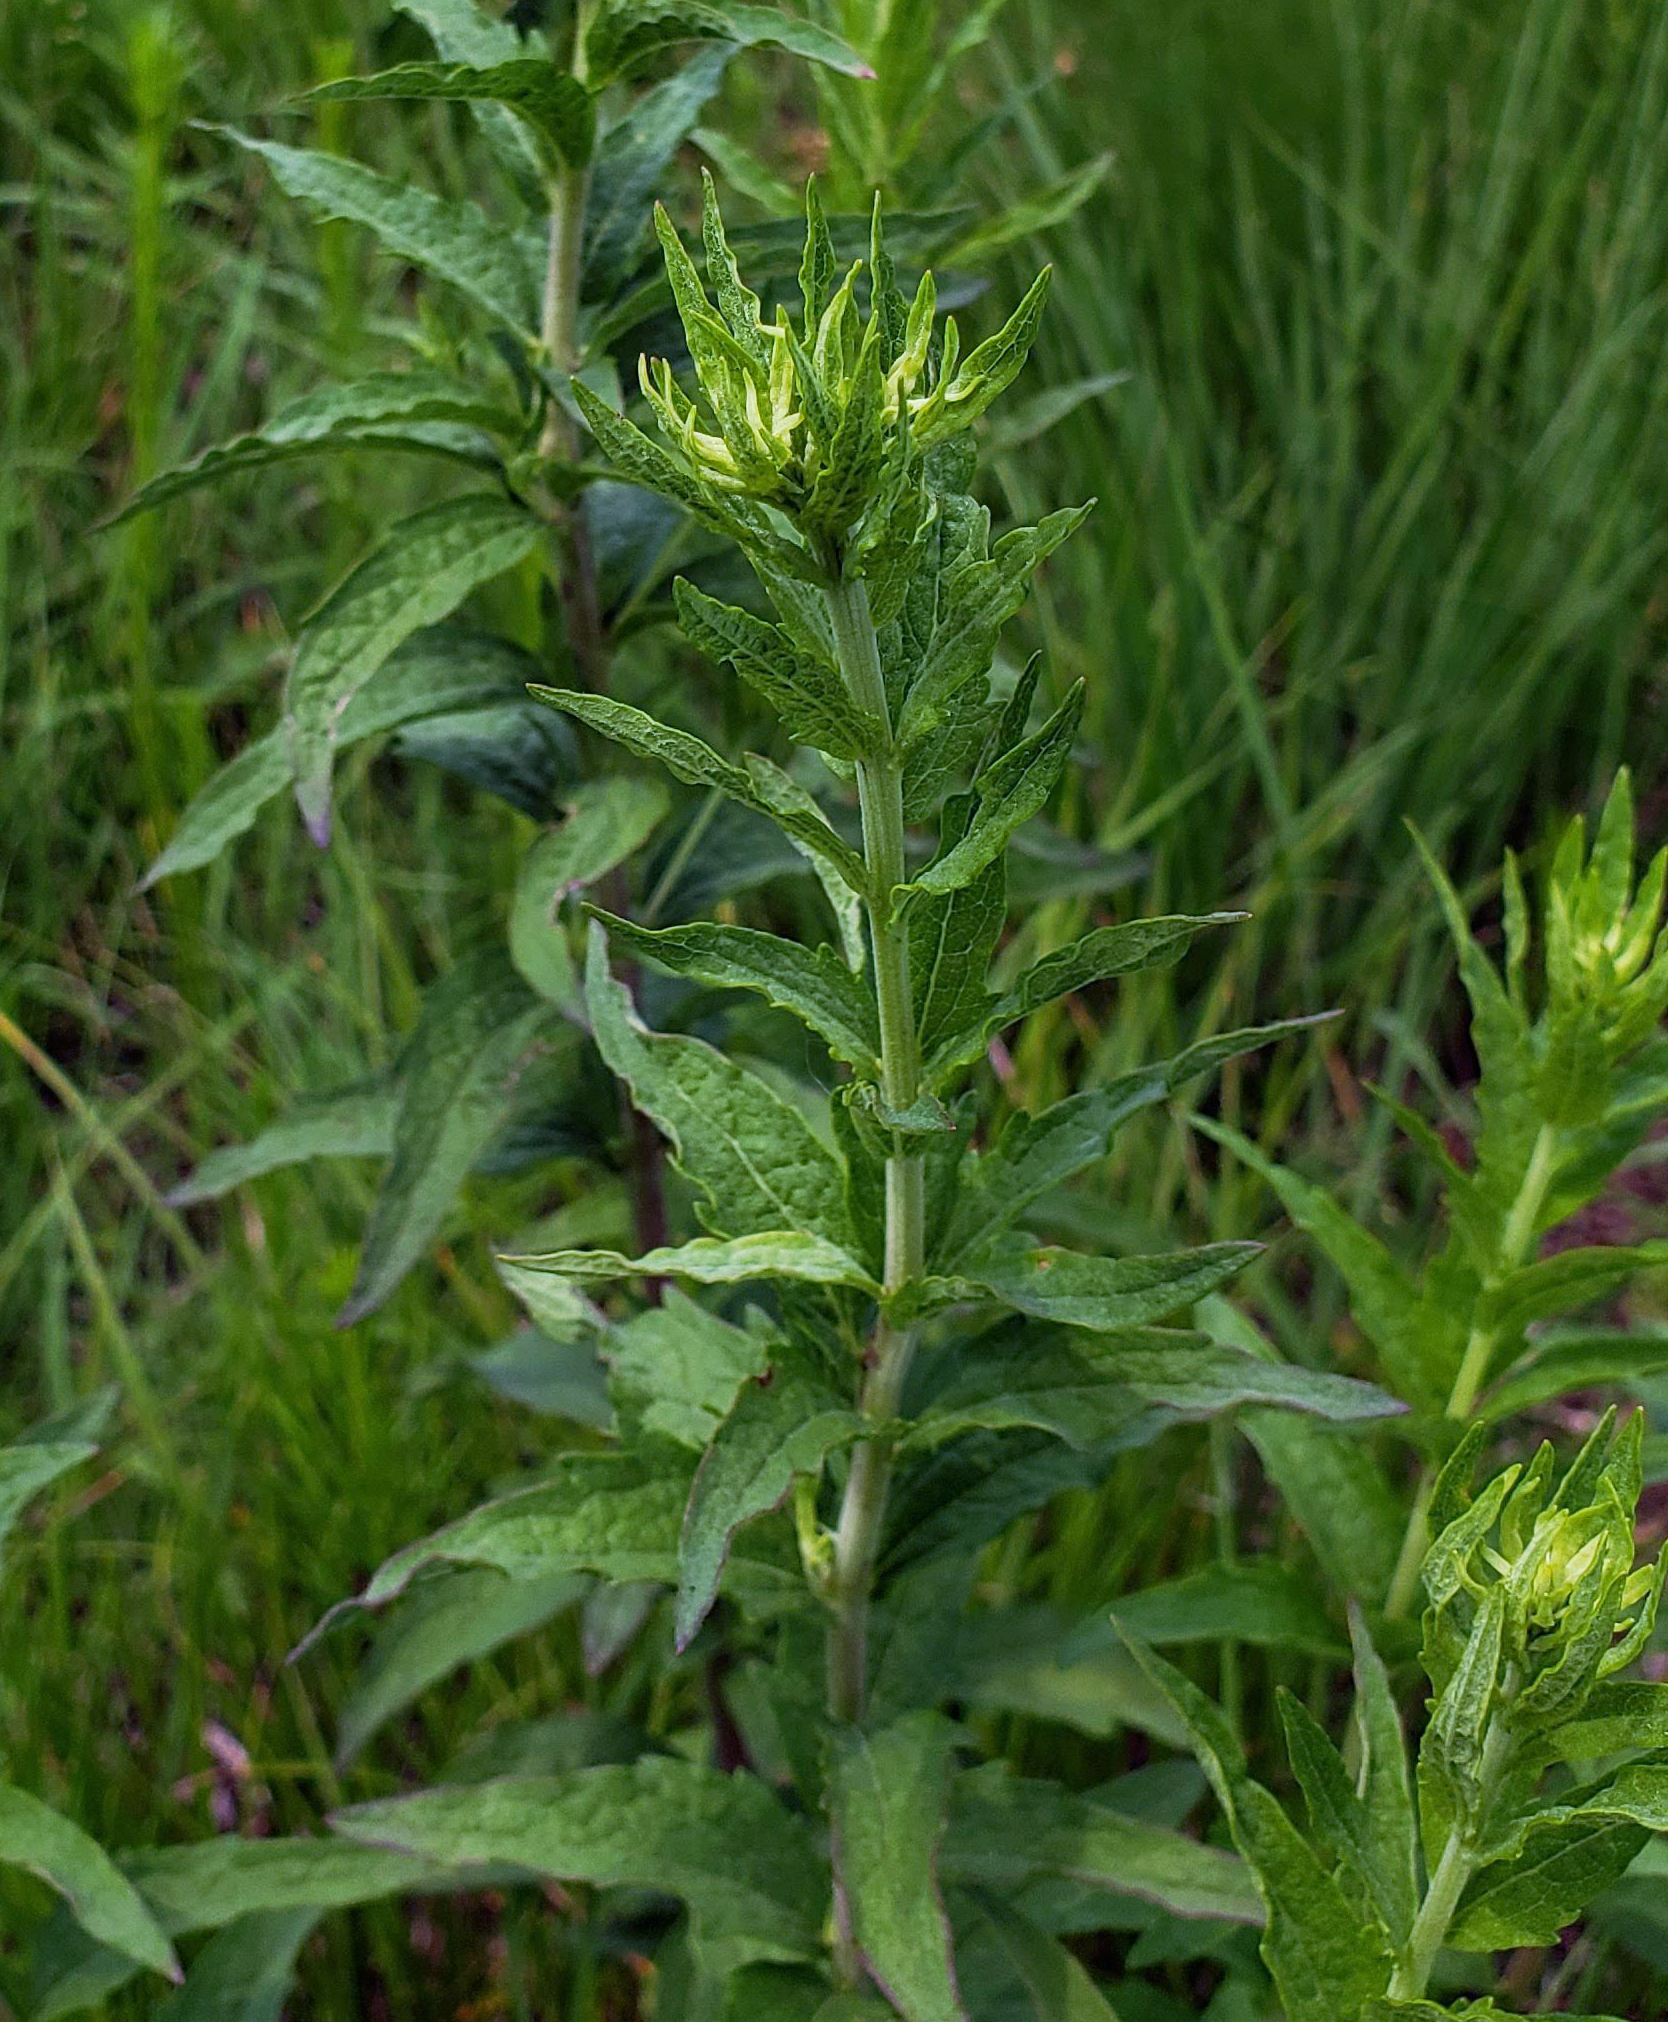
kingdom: Plantae
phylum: Tracheophyta
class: Magnoliopsida
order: Asterales
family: Asteraceae
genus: Brickellia
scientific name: Brickellia eupatorioides
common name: False boneset
